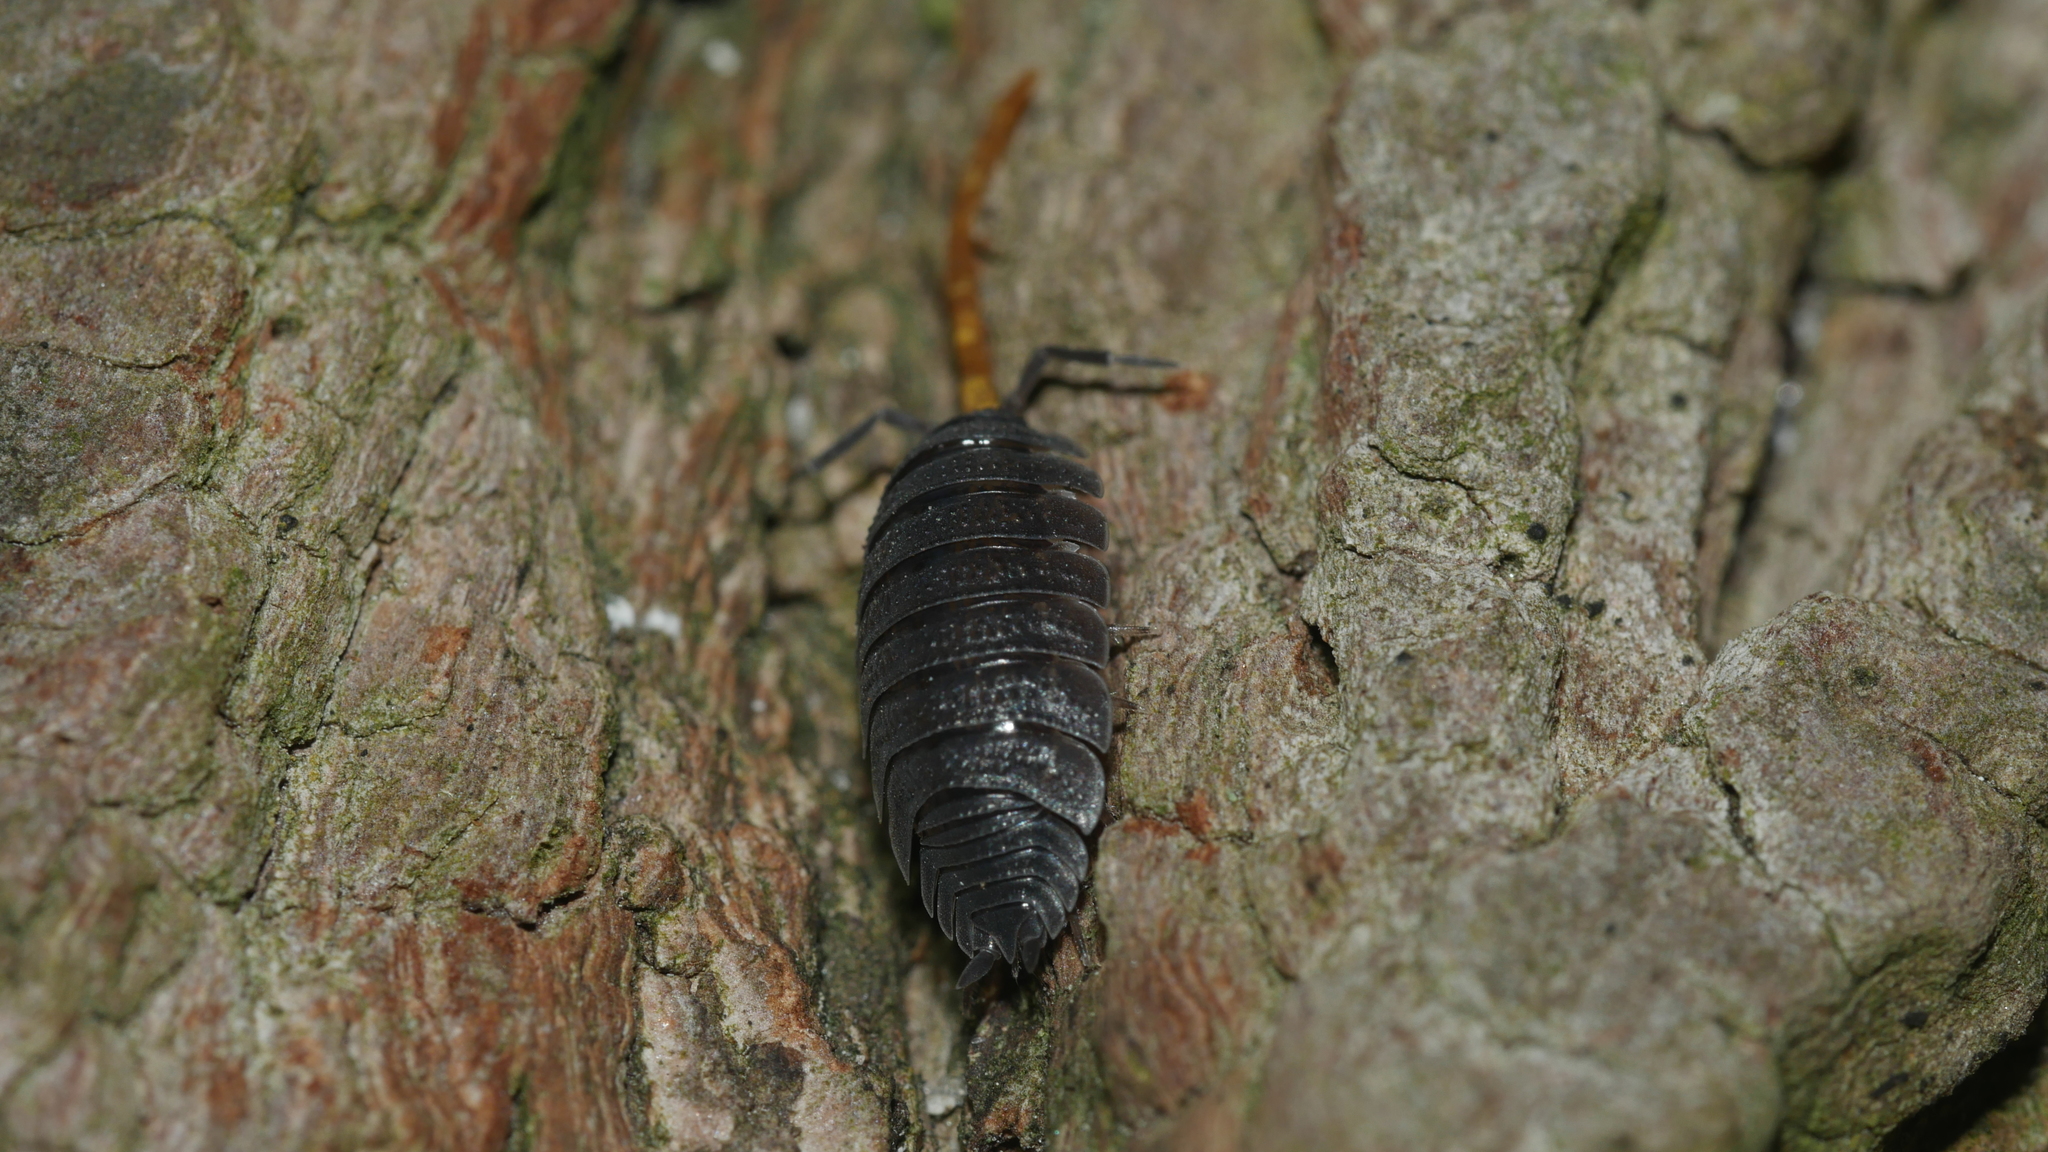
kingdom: Animalia
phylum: Arthropoda
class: Malacostraca
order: Isopoda
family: Porcellionidae
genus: Porcellio
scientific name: Porcellio scaber
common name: Common rough woodlouse
